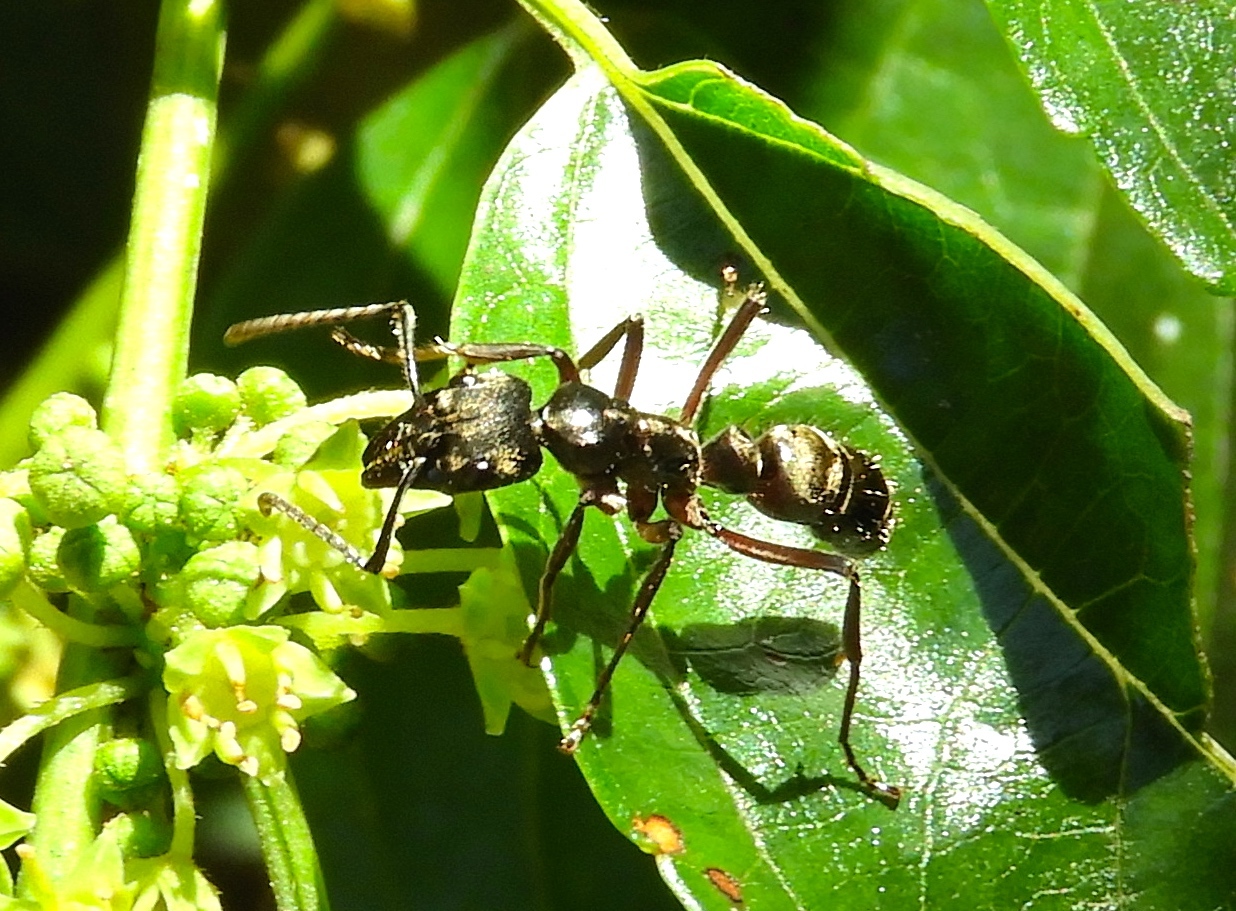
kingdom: Animalia
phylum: Arthropoda
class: Insecta
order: Hymenoptera
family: Formicidae
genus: Pachycondyla
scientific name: Pachycondyla villosa
